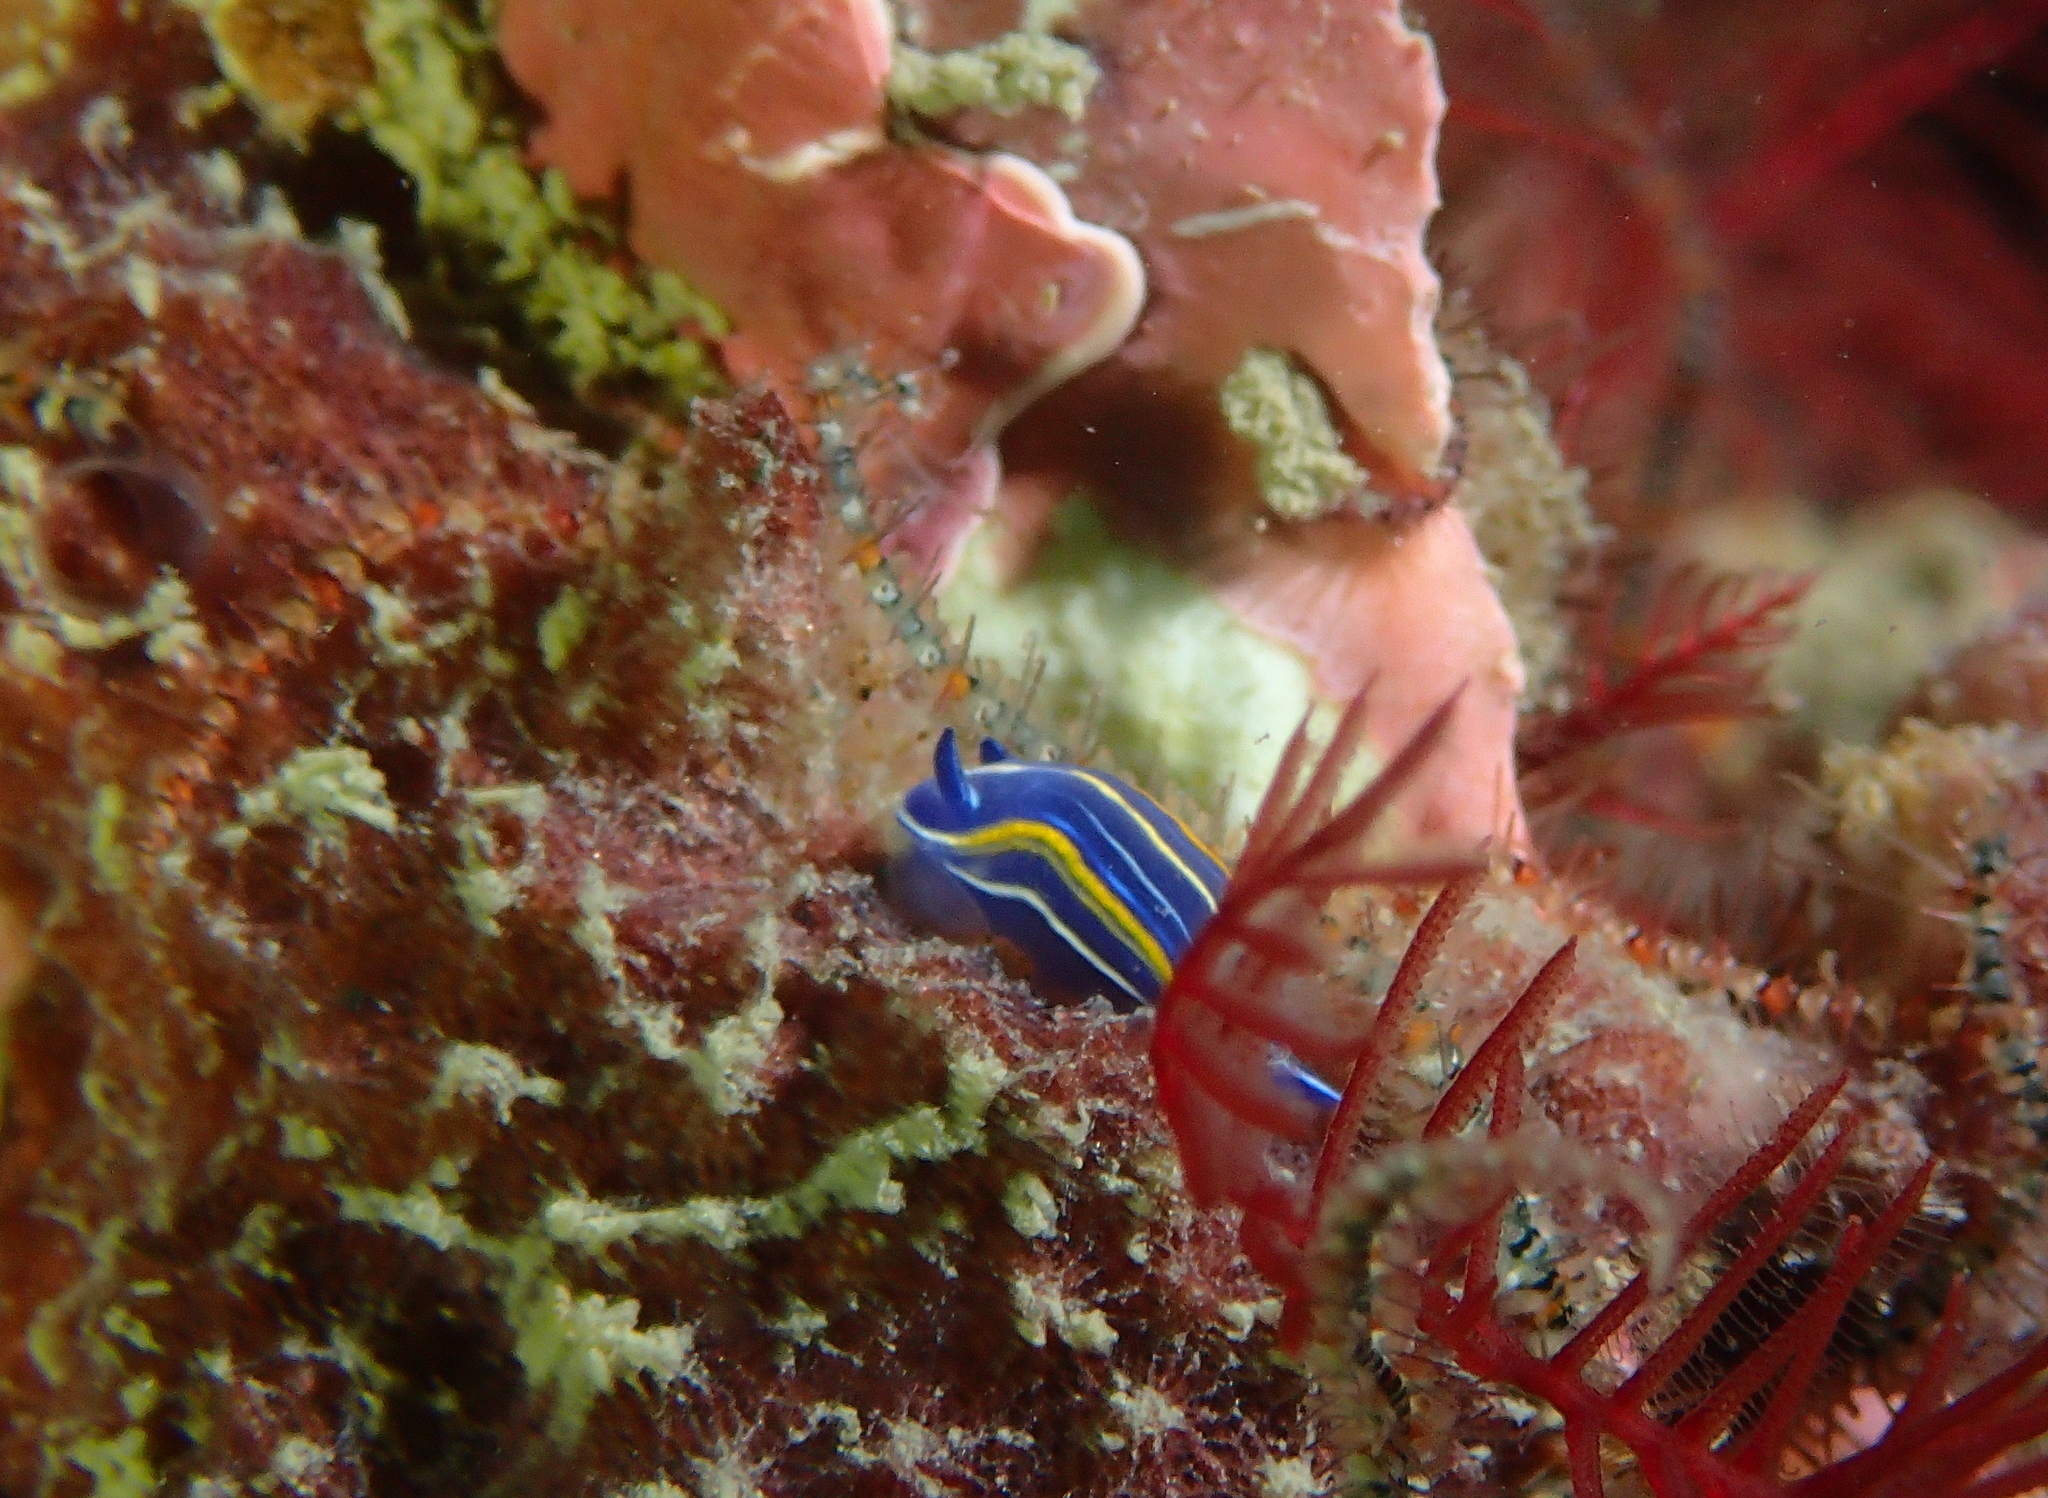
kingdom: Animalia
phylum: Mollusca
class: Gastropoda
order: Nudibranchia
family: Chromodorididae
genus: Felimare
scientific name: Felimare villafranca
